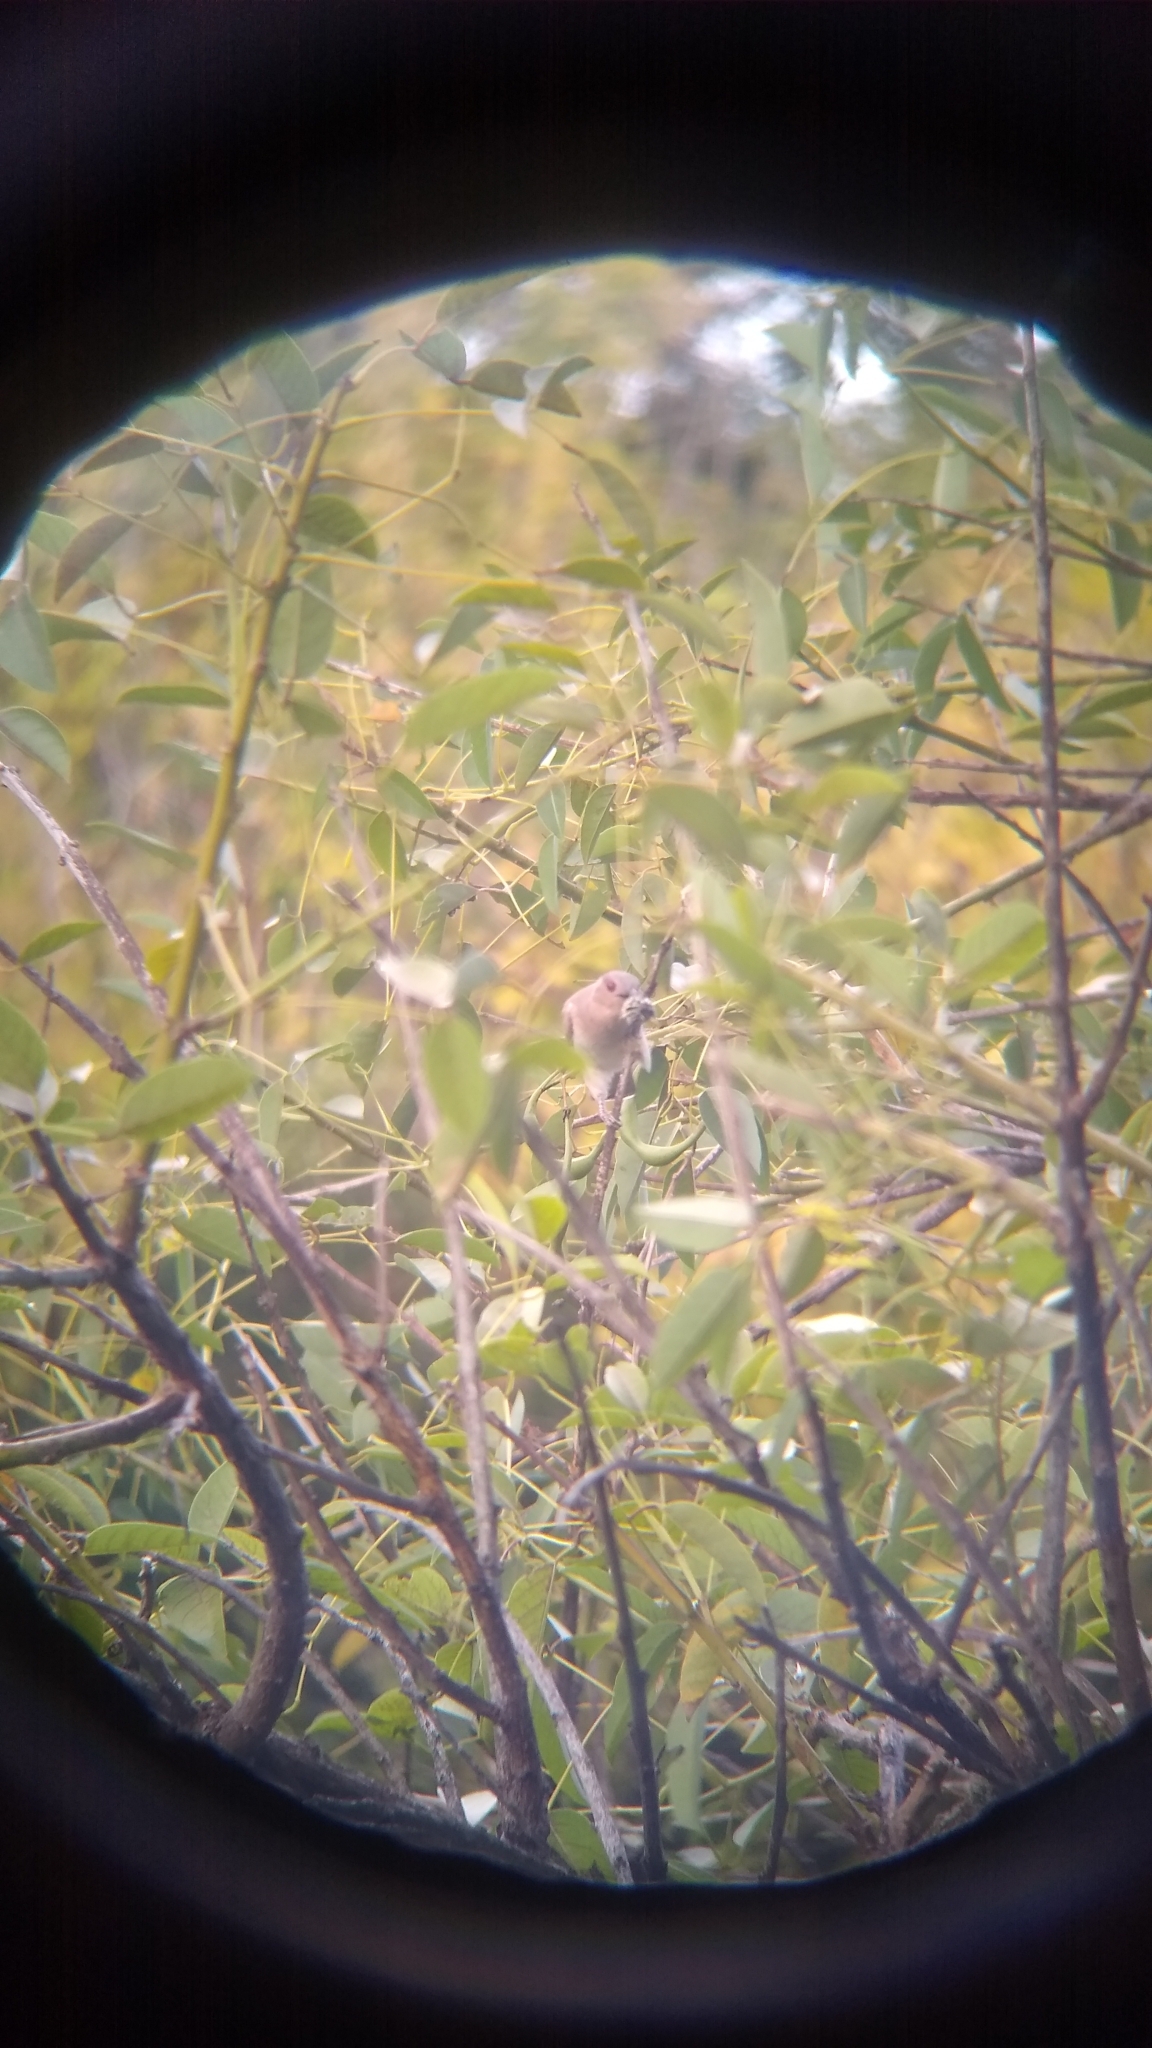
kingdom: Animalia
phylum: Chordata
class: Aves
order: Cuculiformes
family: Cuculidae
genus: Coccyzus
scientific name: Coccyzus cinereus
